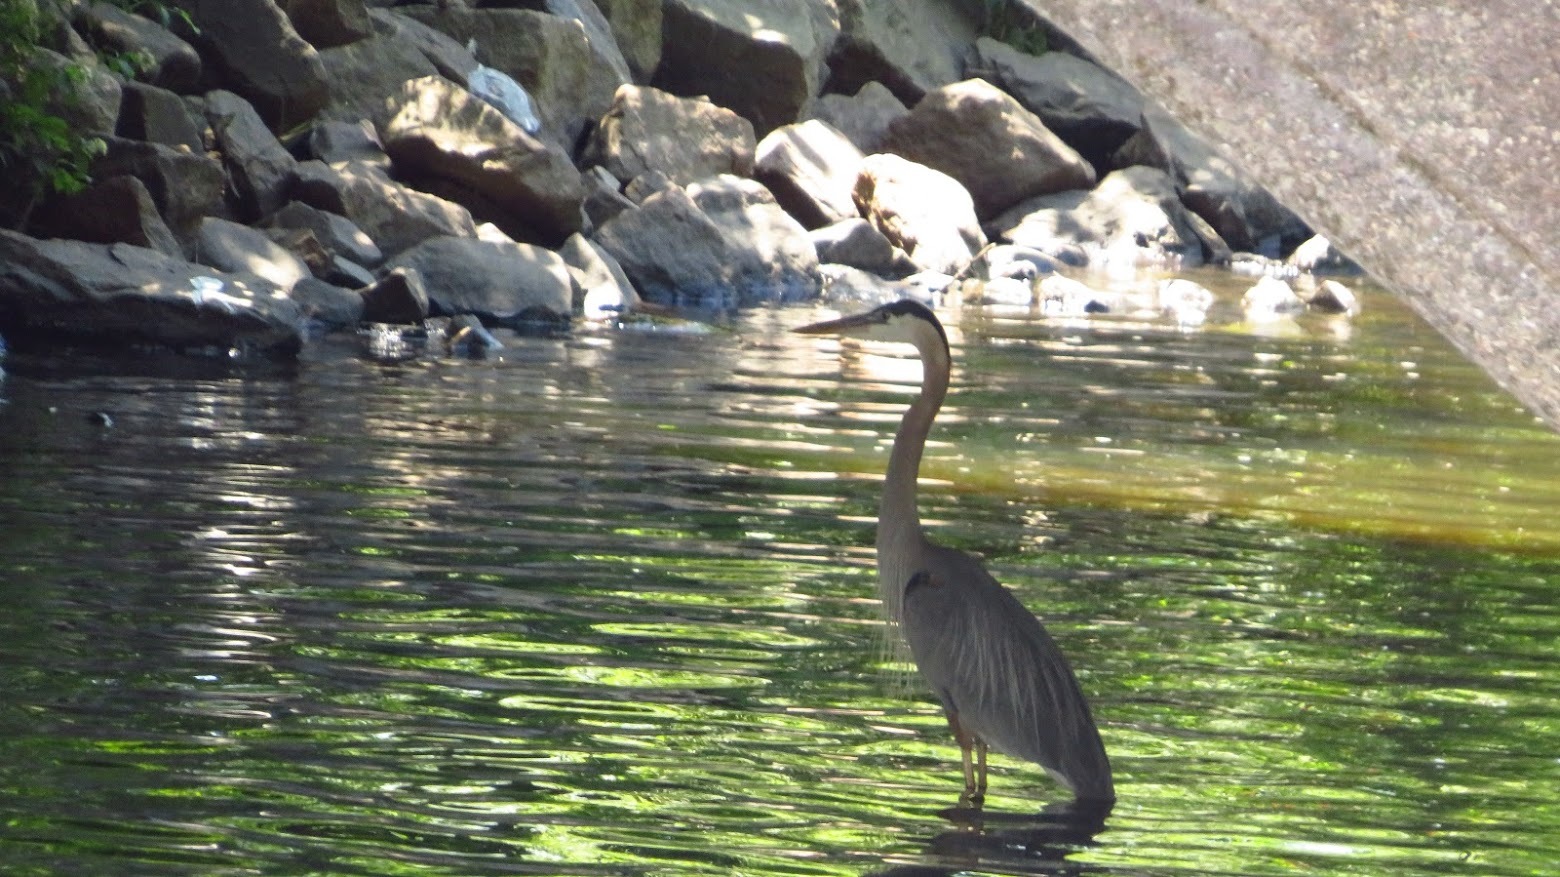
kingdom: Animalia
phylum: Chordata
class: Aves
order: Pelecaniformes
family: Ardeidae
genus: Ardea
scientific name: Ardea herodias
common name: Great blue heron
